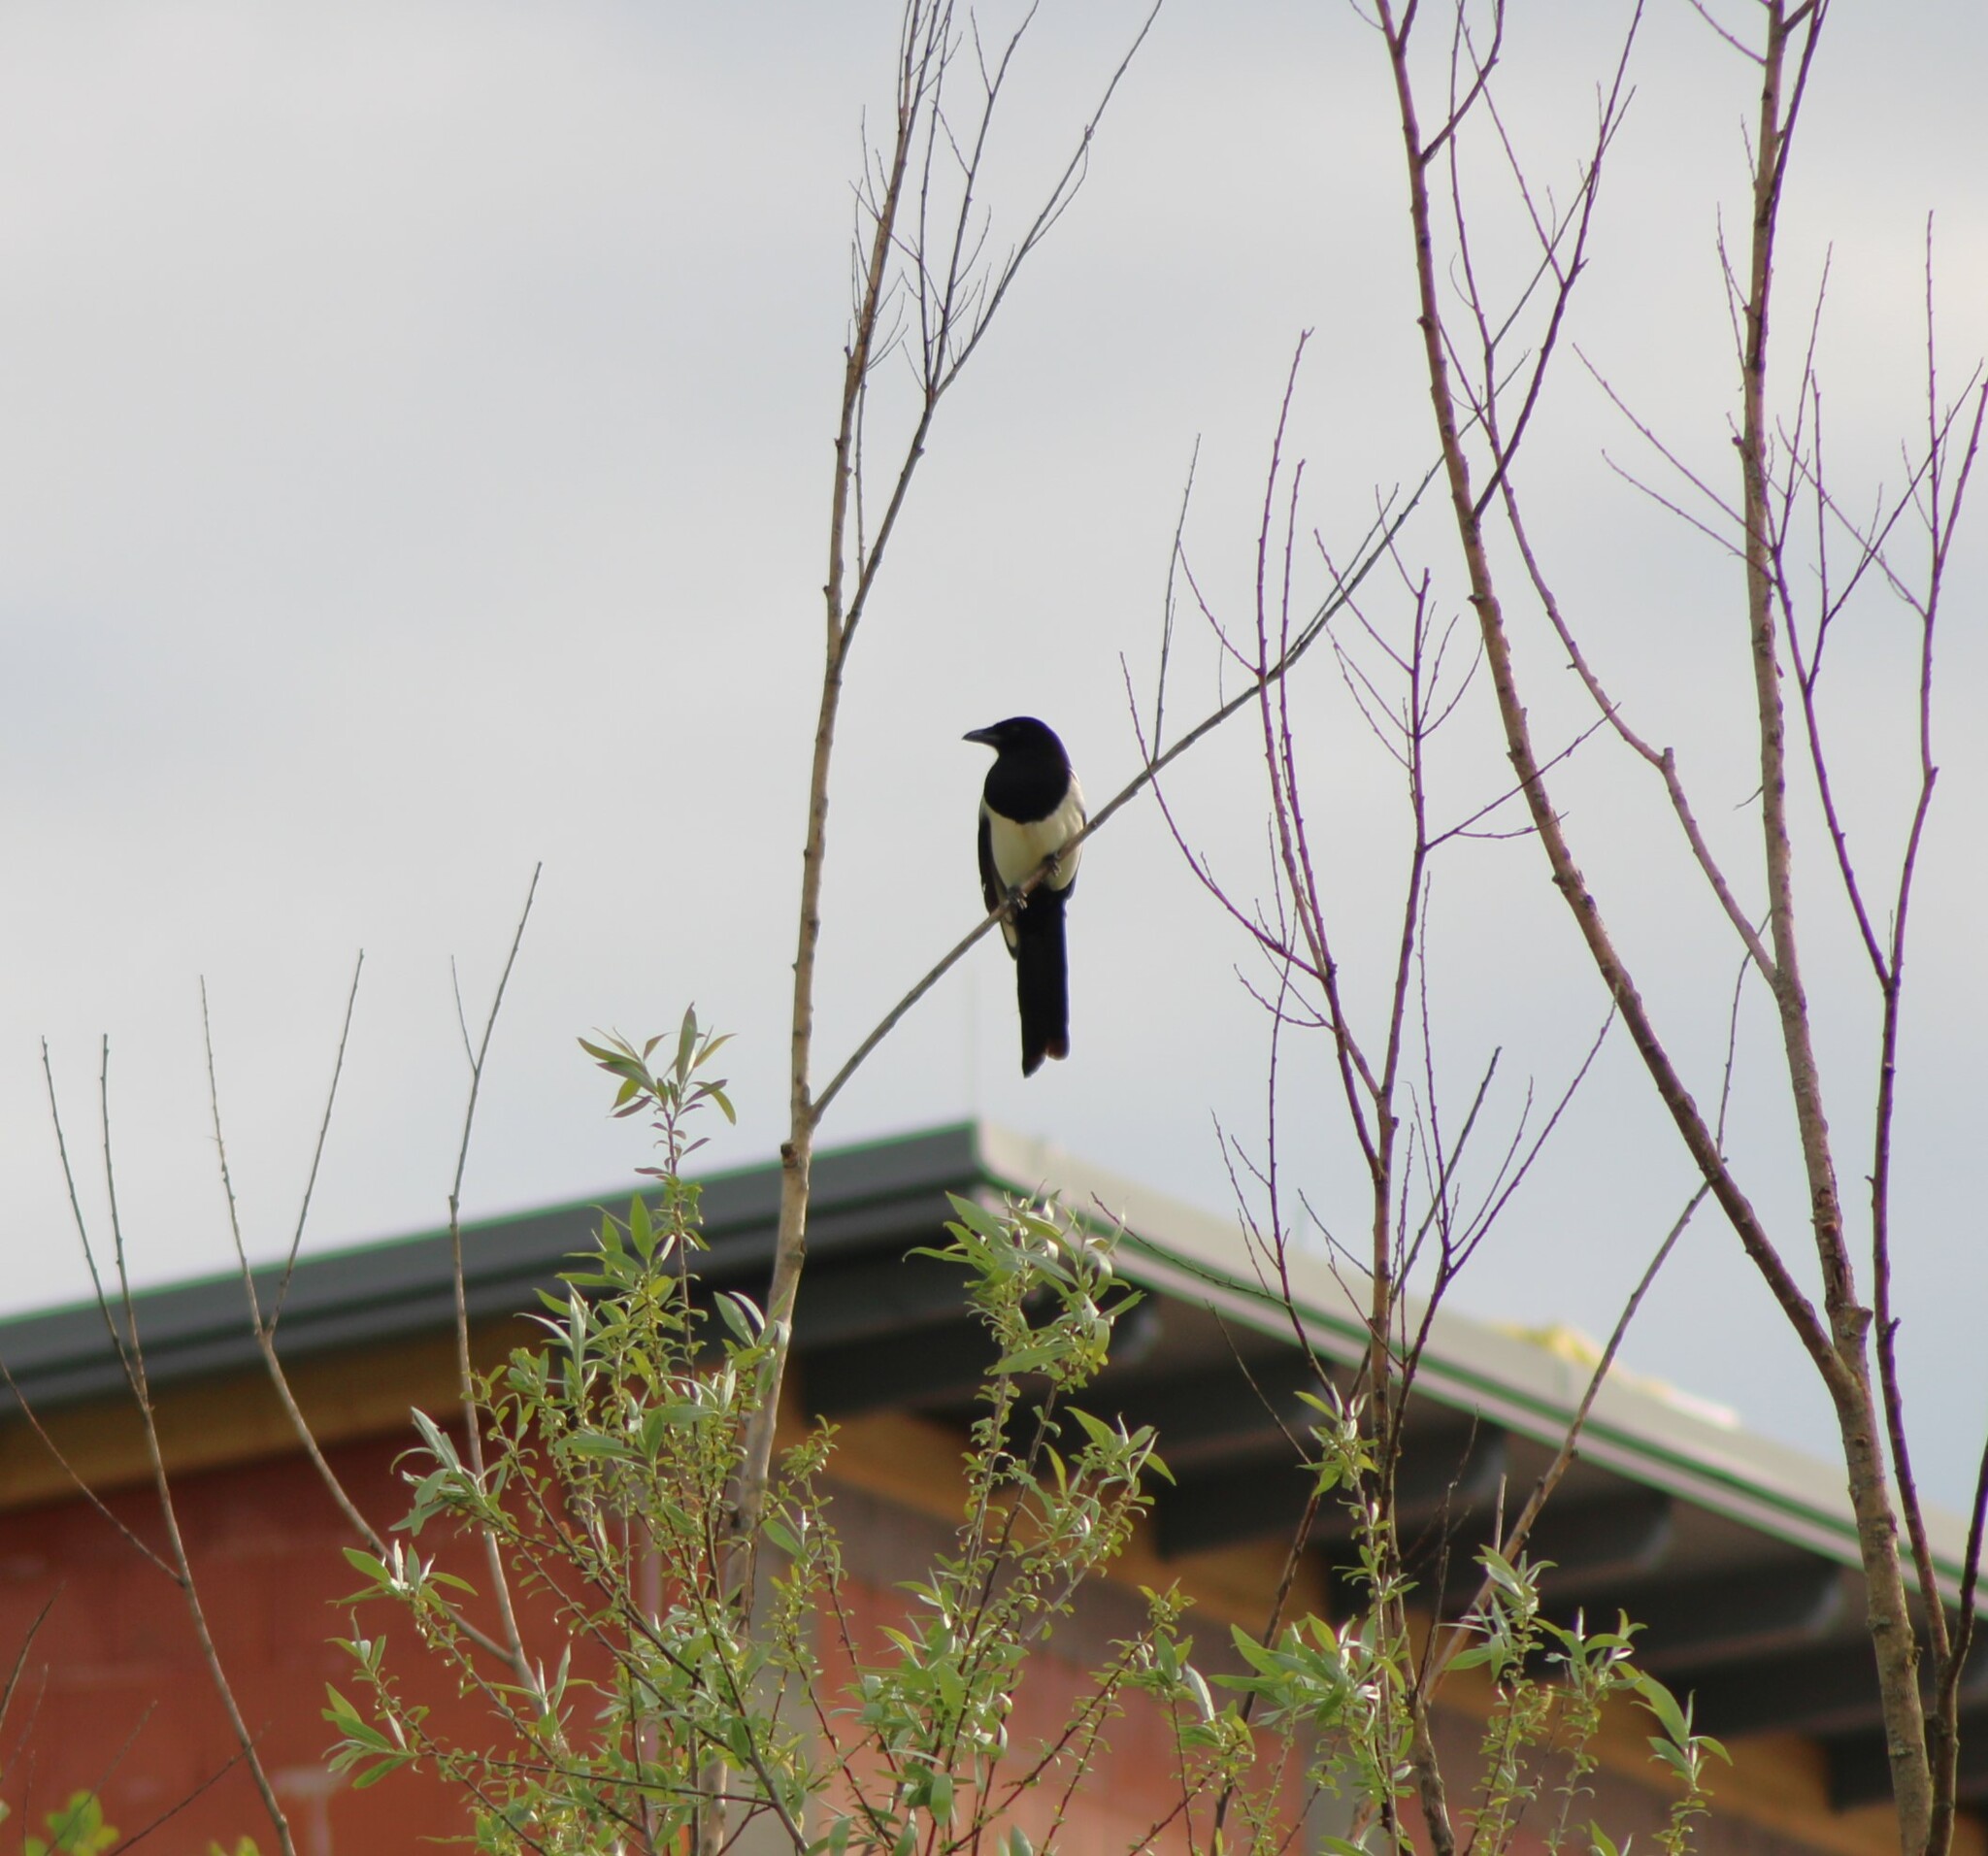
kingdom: Animalia
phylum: Chordata
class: Aves
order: Passeriformes
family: Corvidae
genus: Pica
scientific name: Pica pica
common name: Eurasian magpie
